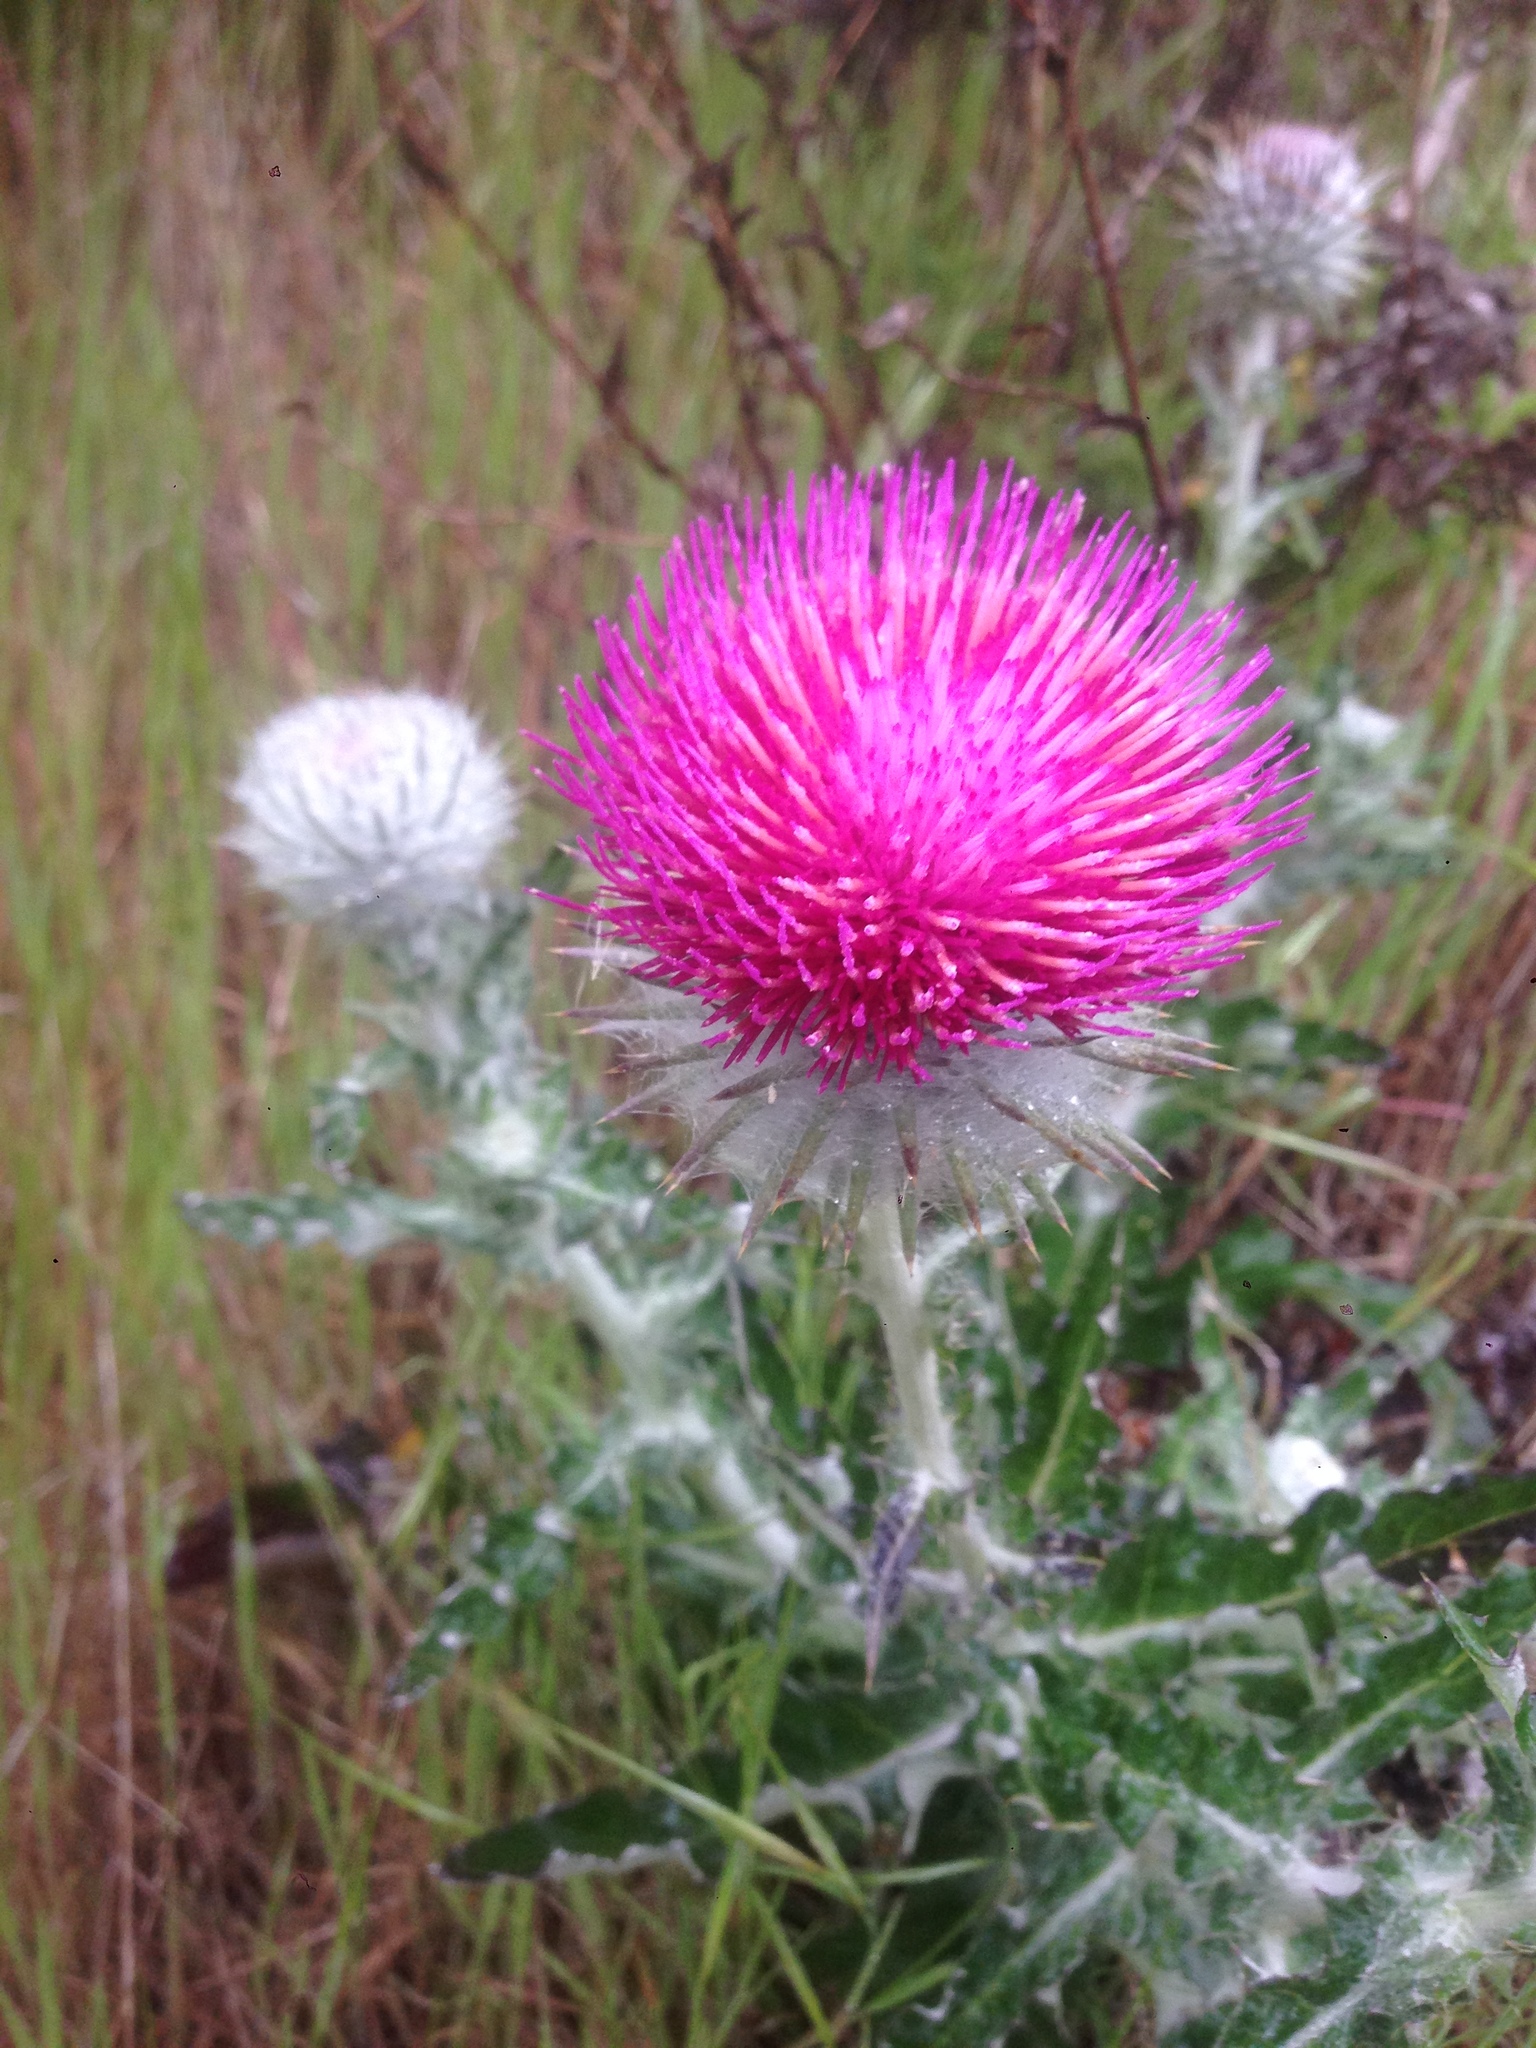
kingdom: Plantae
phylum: Tracheophyta
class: Magnoliopsida
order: Asterales
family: Asteraceae
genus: Cirsium
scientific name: Cirsium occidentale
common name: Western thistle
